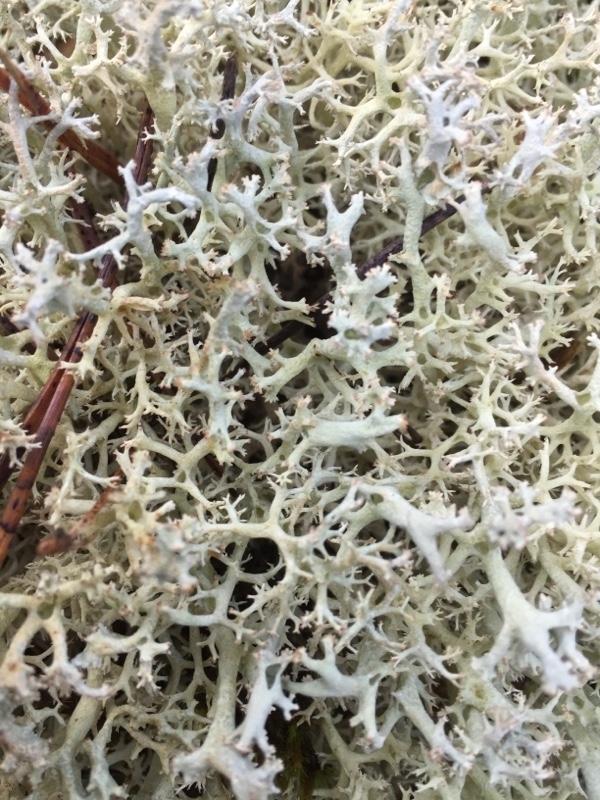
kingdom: Fungi
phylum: Ascomycota
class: Lecanoromycetes
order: Lecanorales
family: Cladoniaceae
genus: Cladonia
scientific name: Cladonia portentosa
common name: Reindeer lichen
